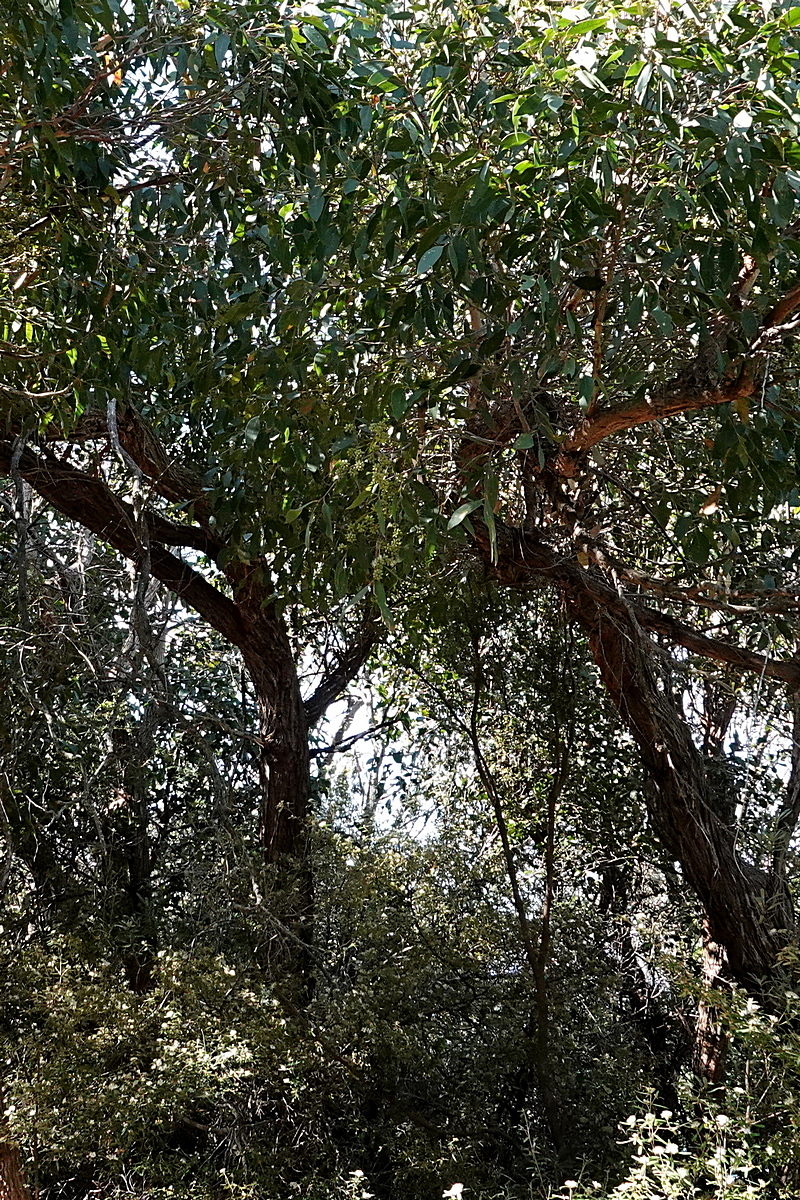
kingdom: Plantae
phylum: Tracheophyta
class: Magnoliopsida
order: Myrtales
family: Myrtaceae
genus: Eucalyptus
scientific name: Eucalyptus agglomerata
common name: Blue-leaved stringybark
